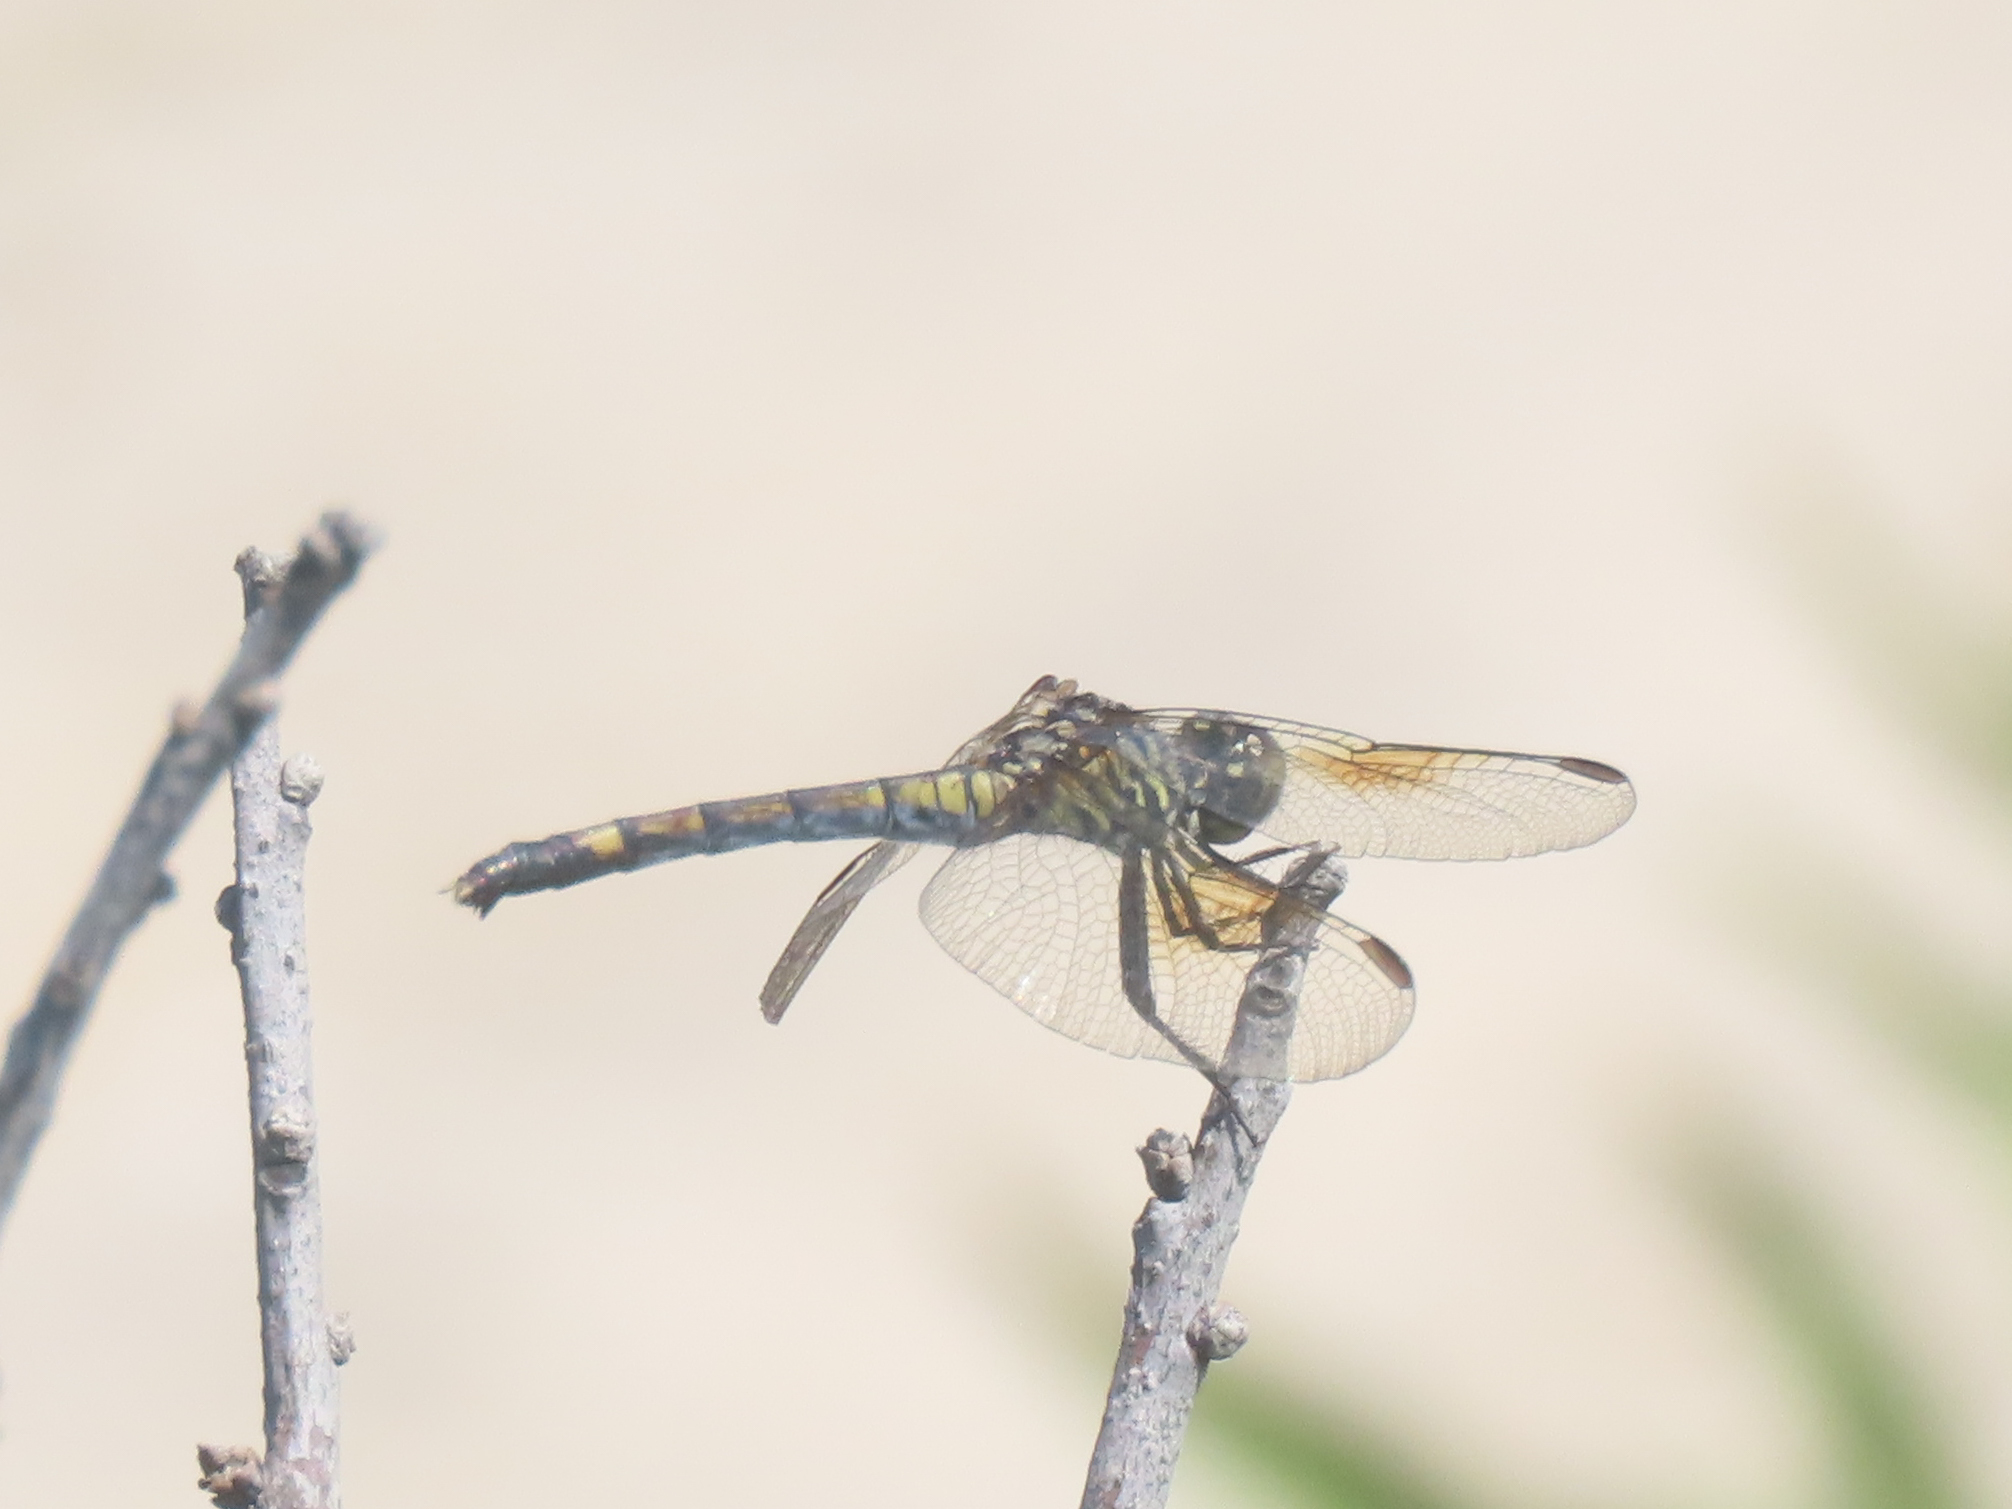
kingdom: Animalia
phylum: Arthropoda
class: Insecta
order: Odonata
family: Libellulidae
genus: Erythrodiplax
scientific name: Erythrodiplax berenice
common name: Seaside dragonlet
